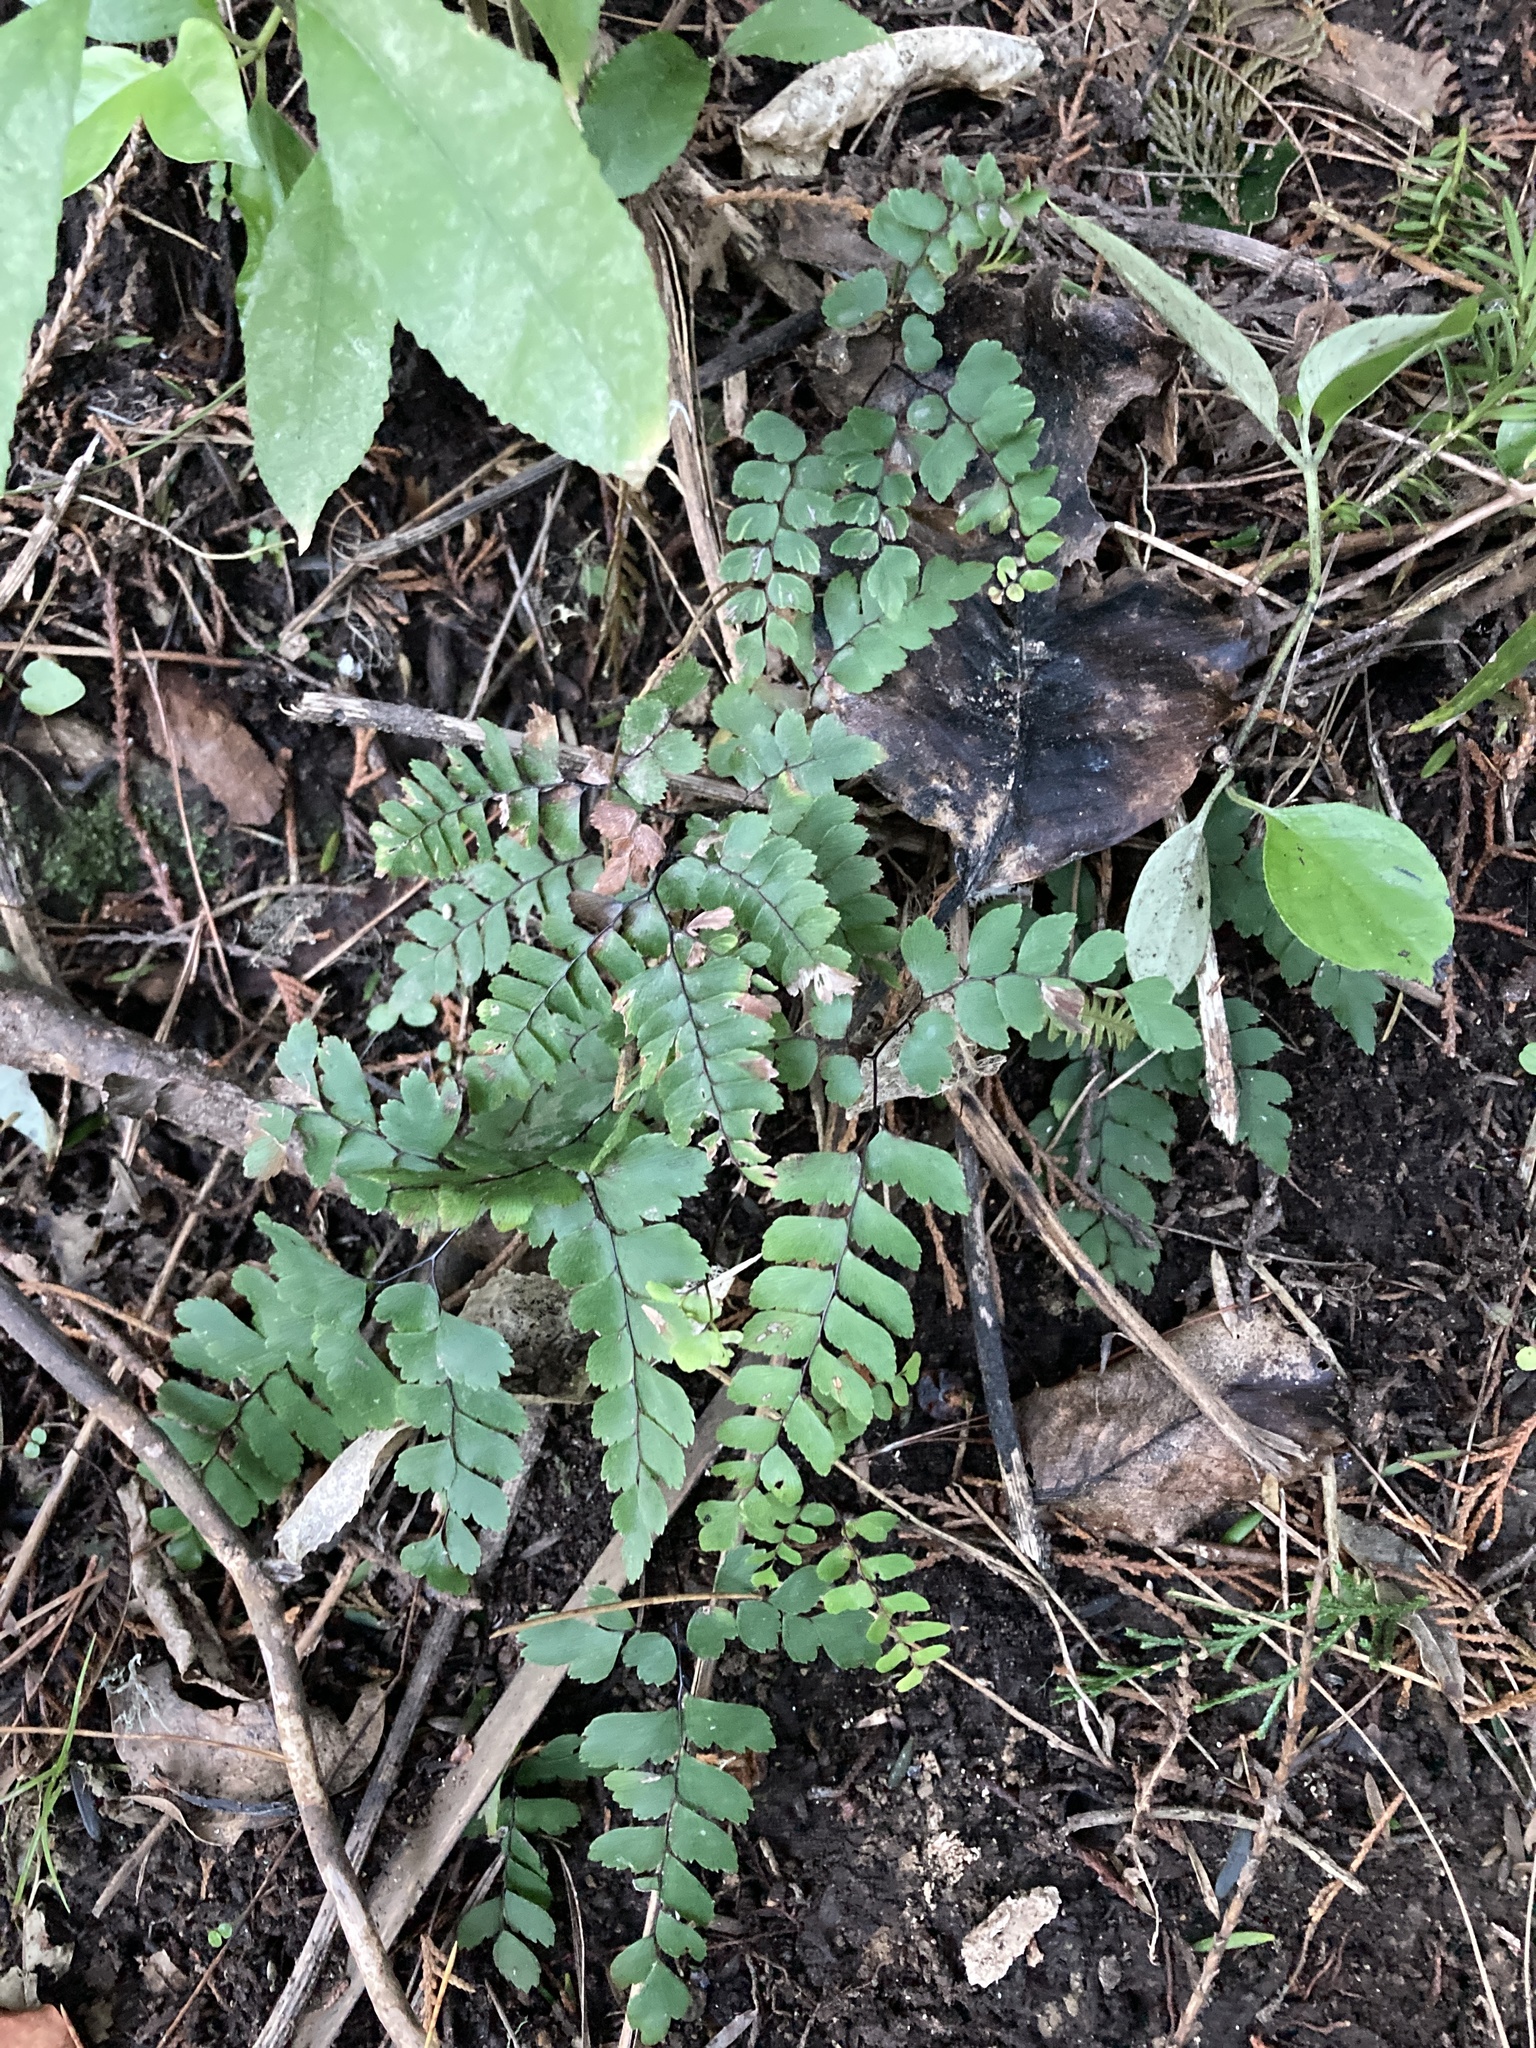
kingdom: Plantae
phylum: Tracheophyta
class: Polypodiopsida
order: Polypodiales
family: Pteridaceae
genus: Adiantum
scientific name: Adiantum cunninghamii
